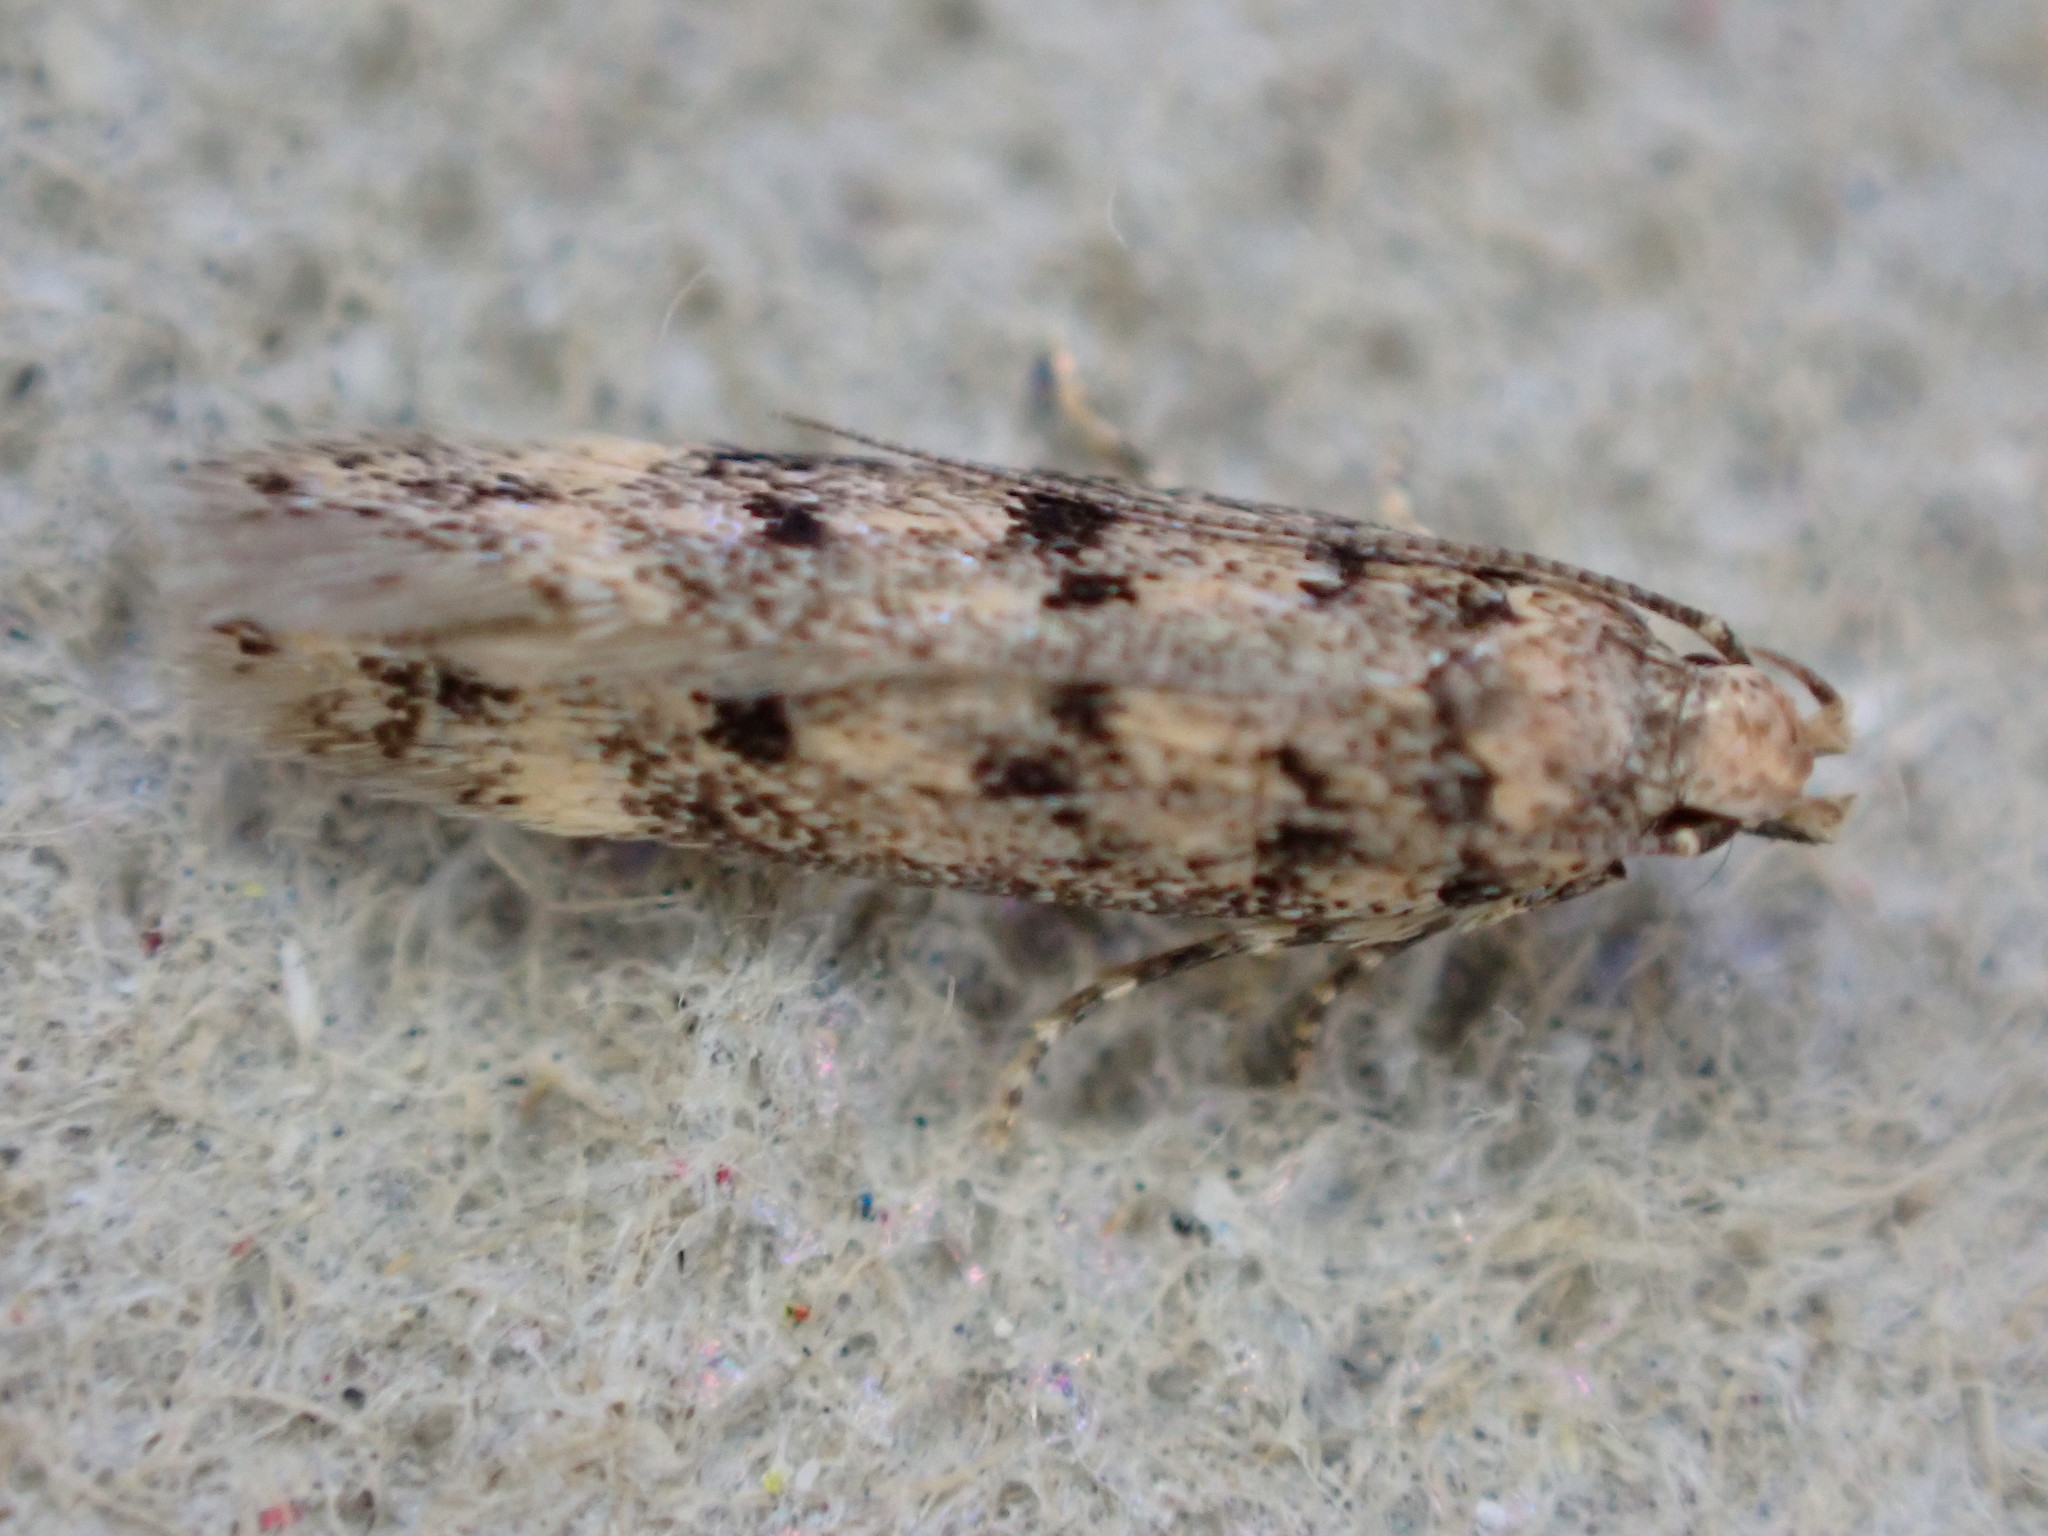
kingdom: Animalia
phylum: Arthropoda
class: Insecta
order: Lepidoptera
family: Gelechiidae
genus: Bryotropha
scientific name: Bryotropha domestica
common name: House groundling
